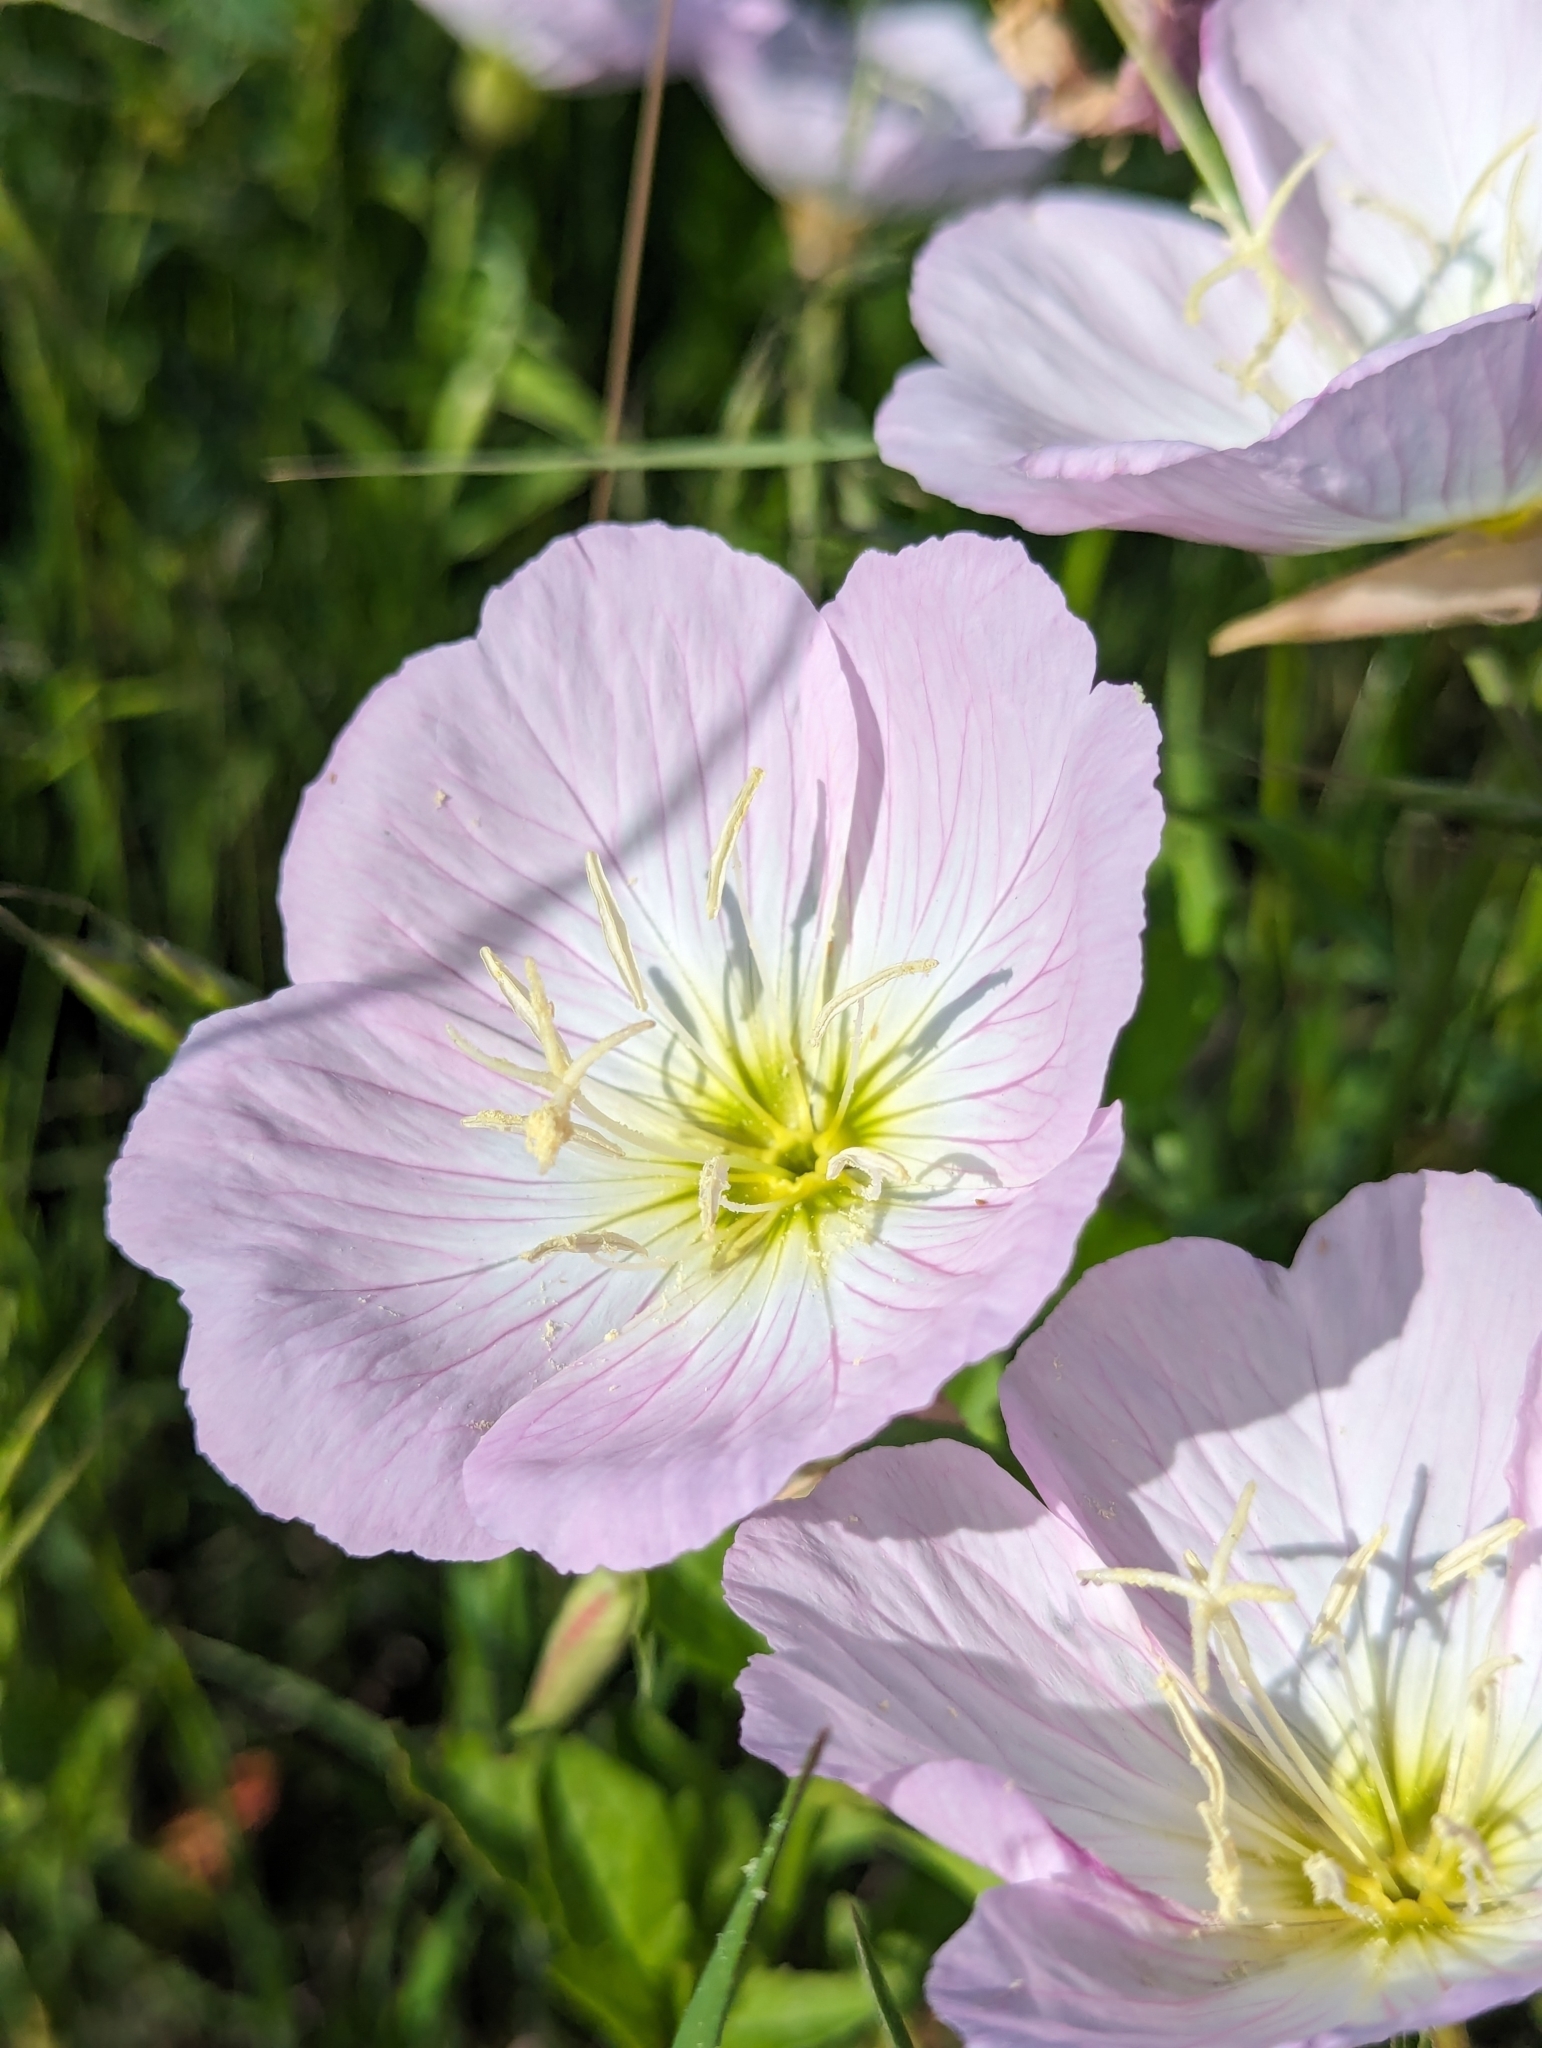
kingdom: Plantae
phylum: Tracheophyta
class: Magnoliopsida
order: Myrtales
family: Onagraceae
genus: Oenothera
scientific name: Oenothera speciosa
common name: White evening-primrose
